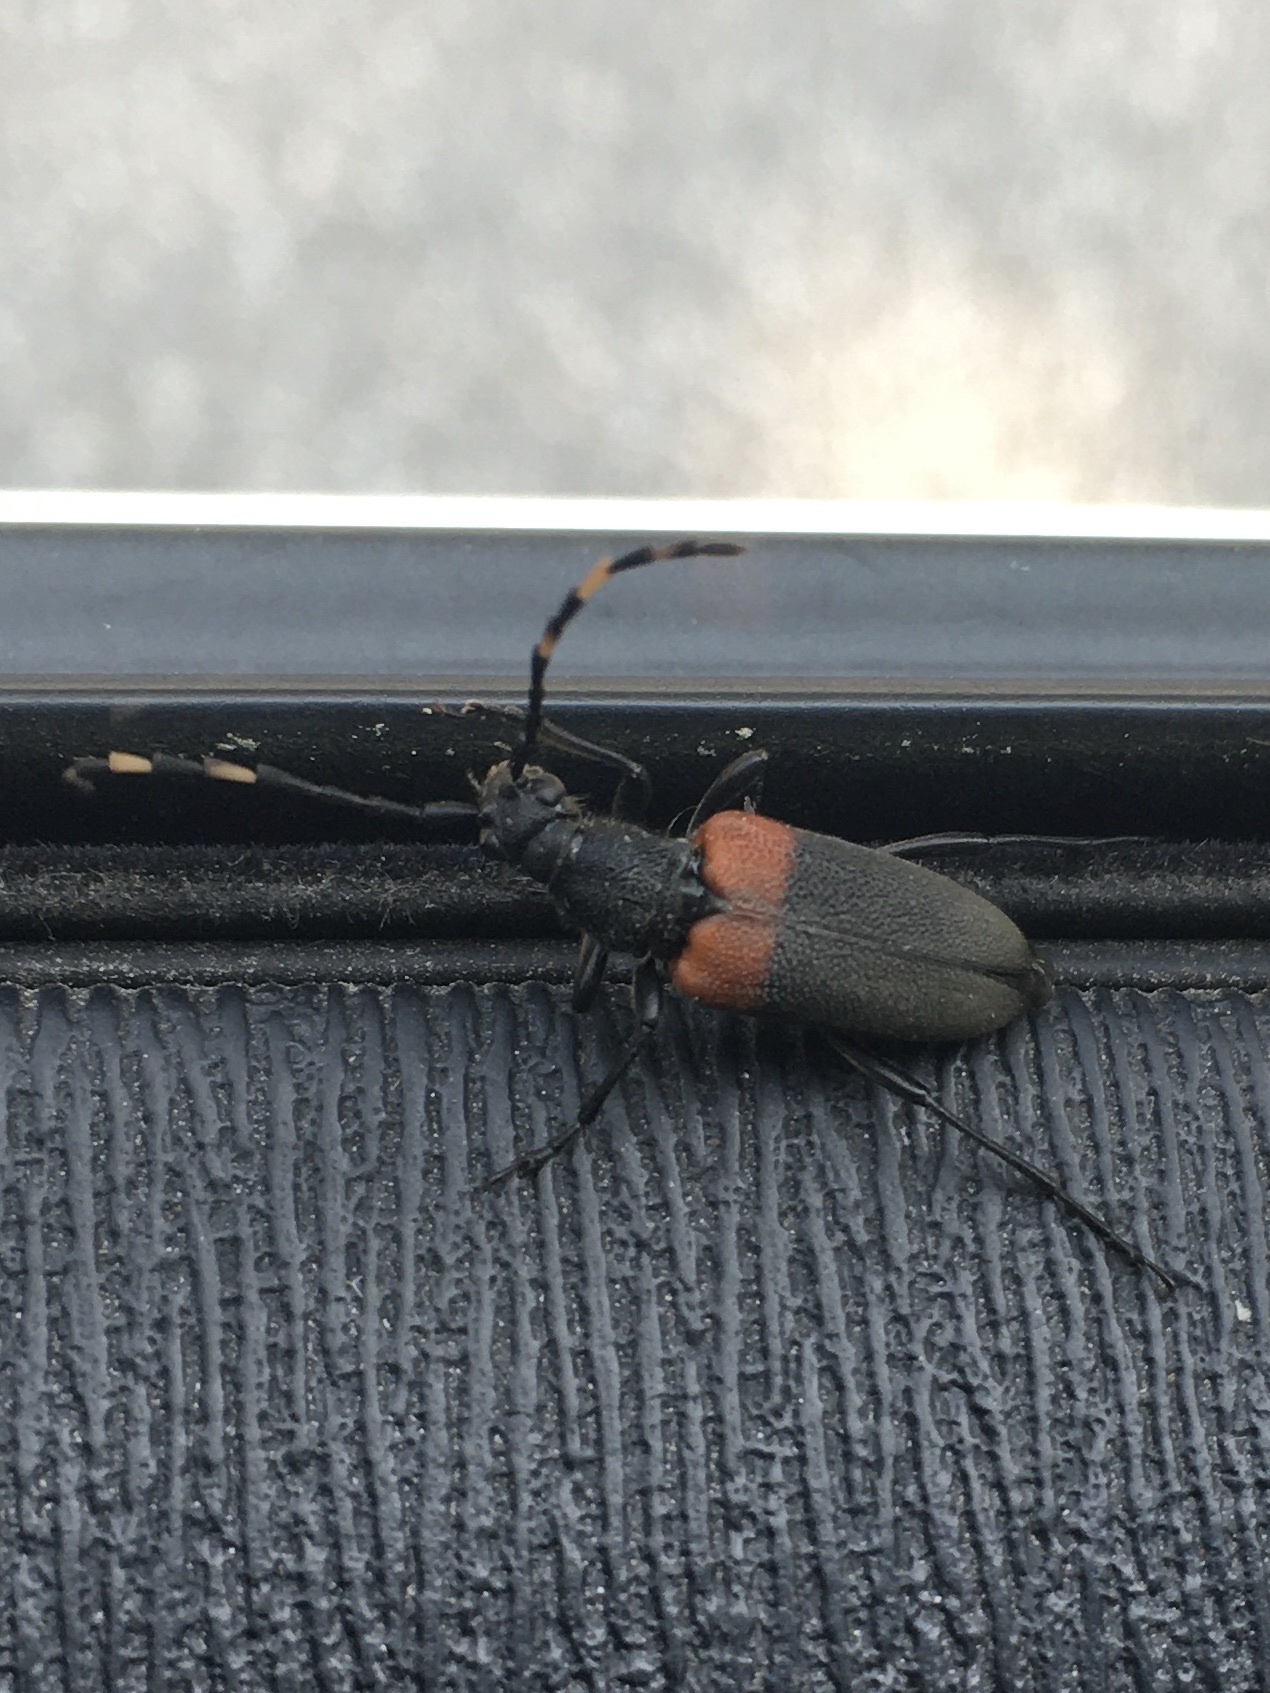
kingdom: Animalia
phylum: Arthropoda
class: Insecta
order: Coleoptera
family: Cerambycidae
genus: Stictoleptura
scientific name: Stictoleptura canadensis
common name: Red-shouldered pine borer
